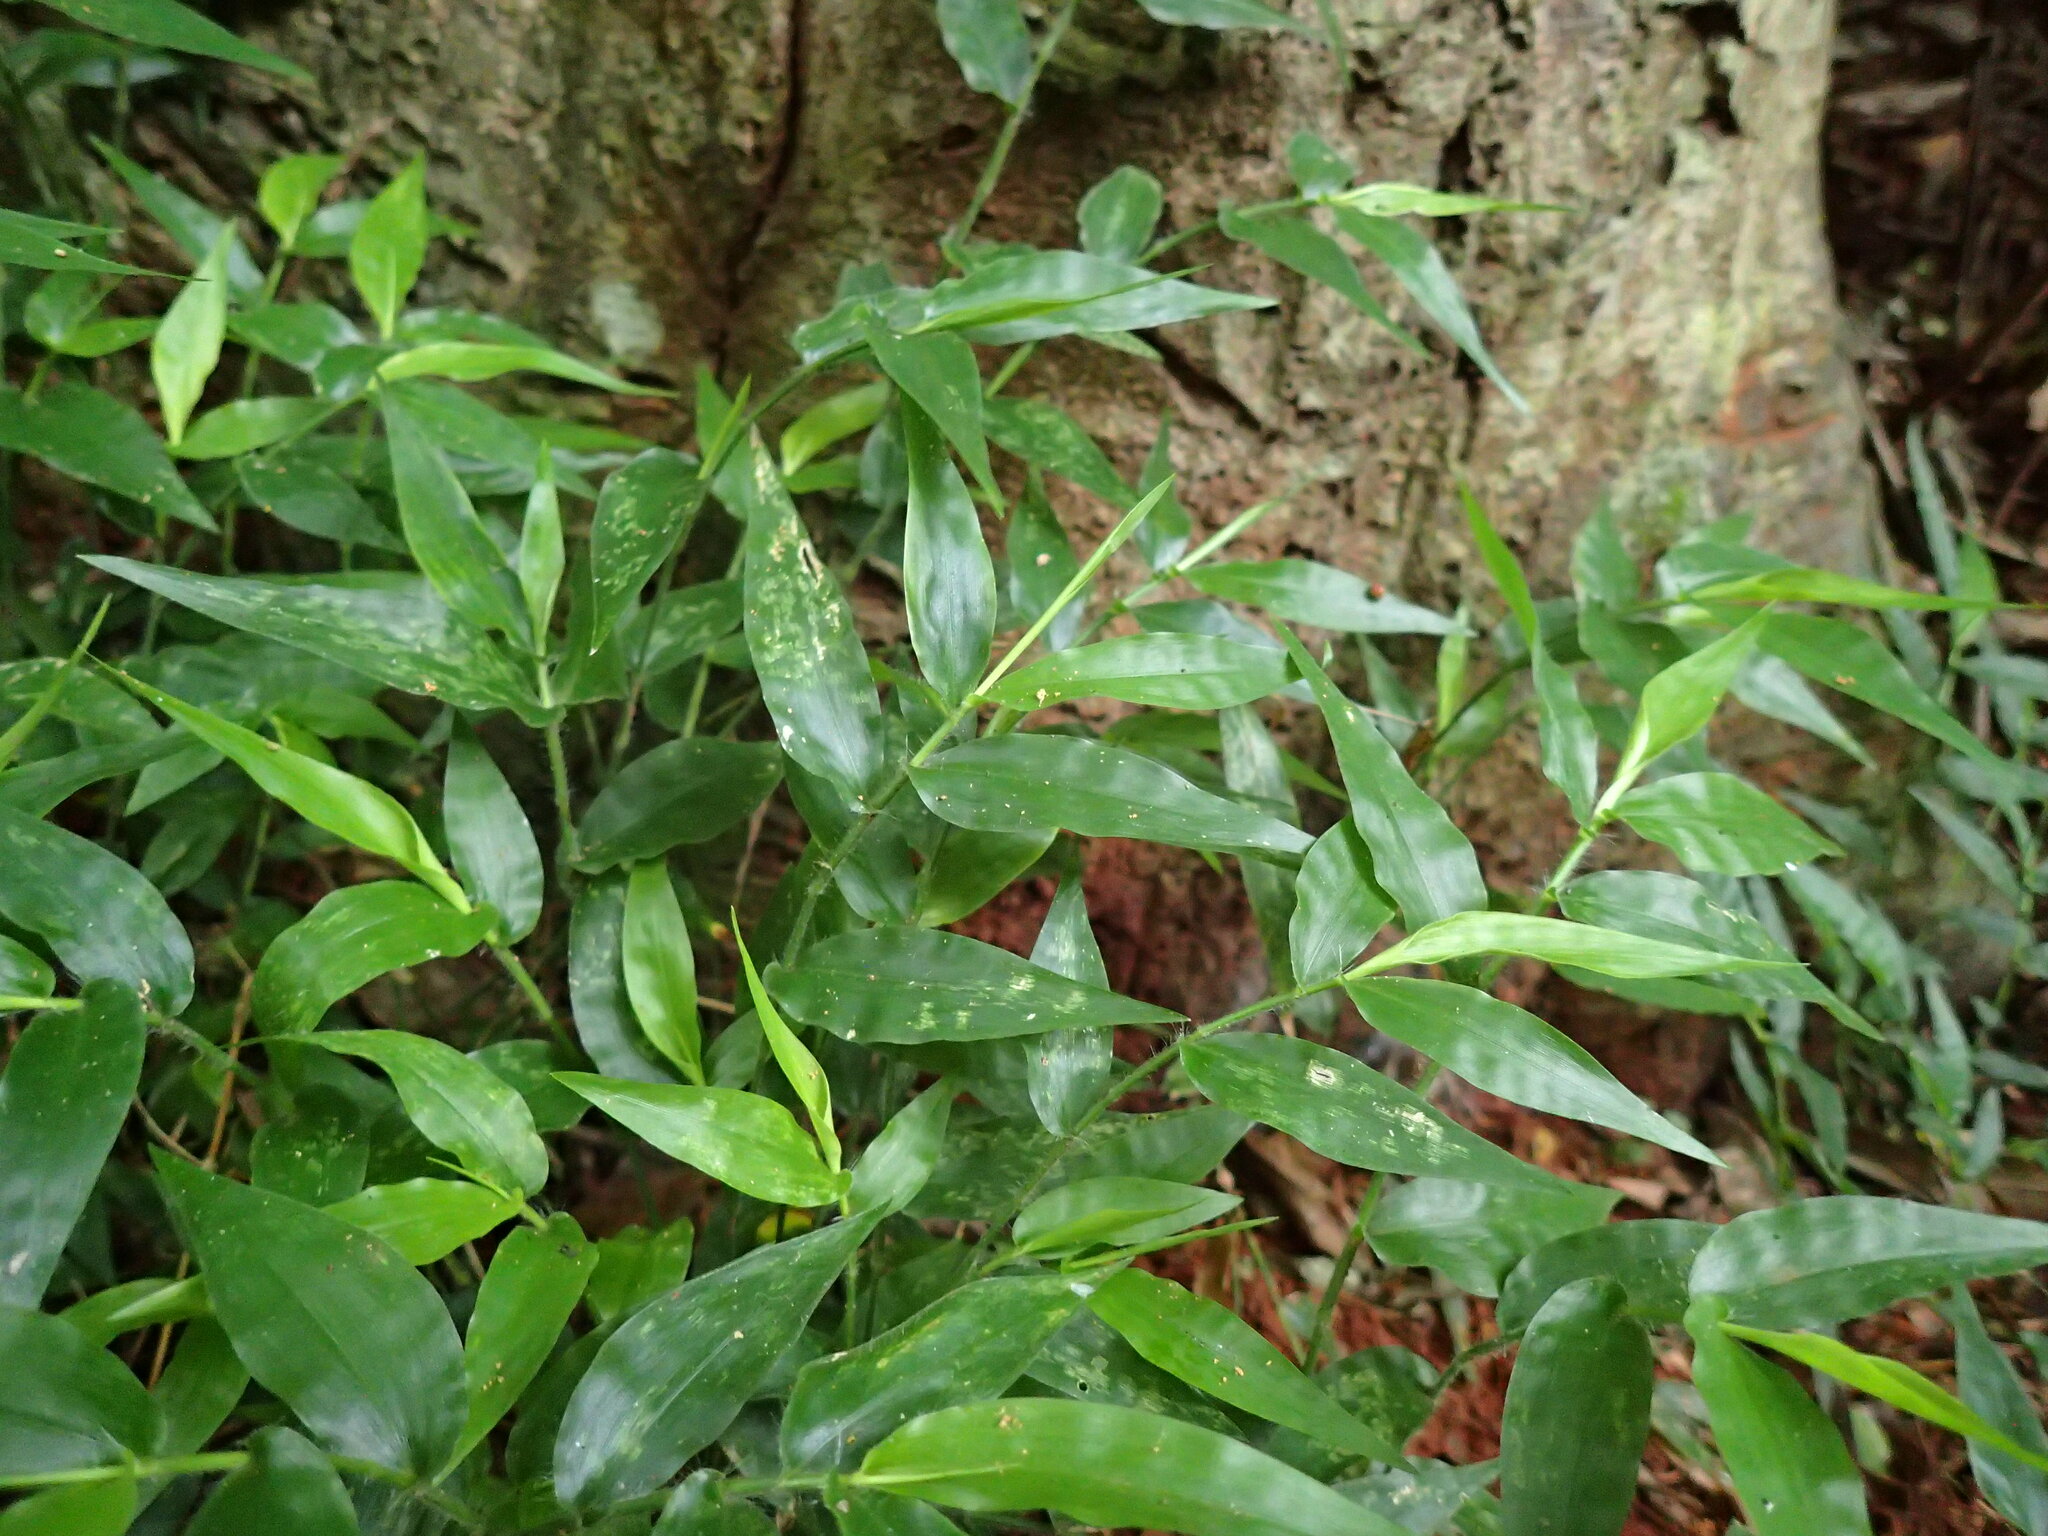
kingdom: Plantae
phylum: Tracheophyta
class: Liliopsida
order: Poales
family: Poaceae
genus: Oplismenus
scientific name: Oplismenus hirtellus
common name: Basketgrass
